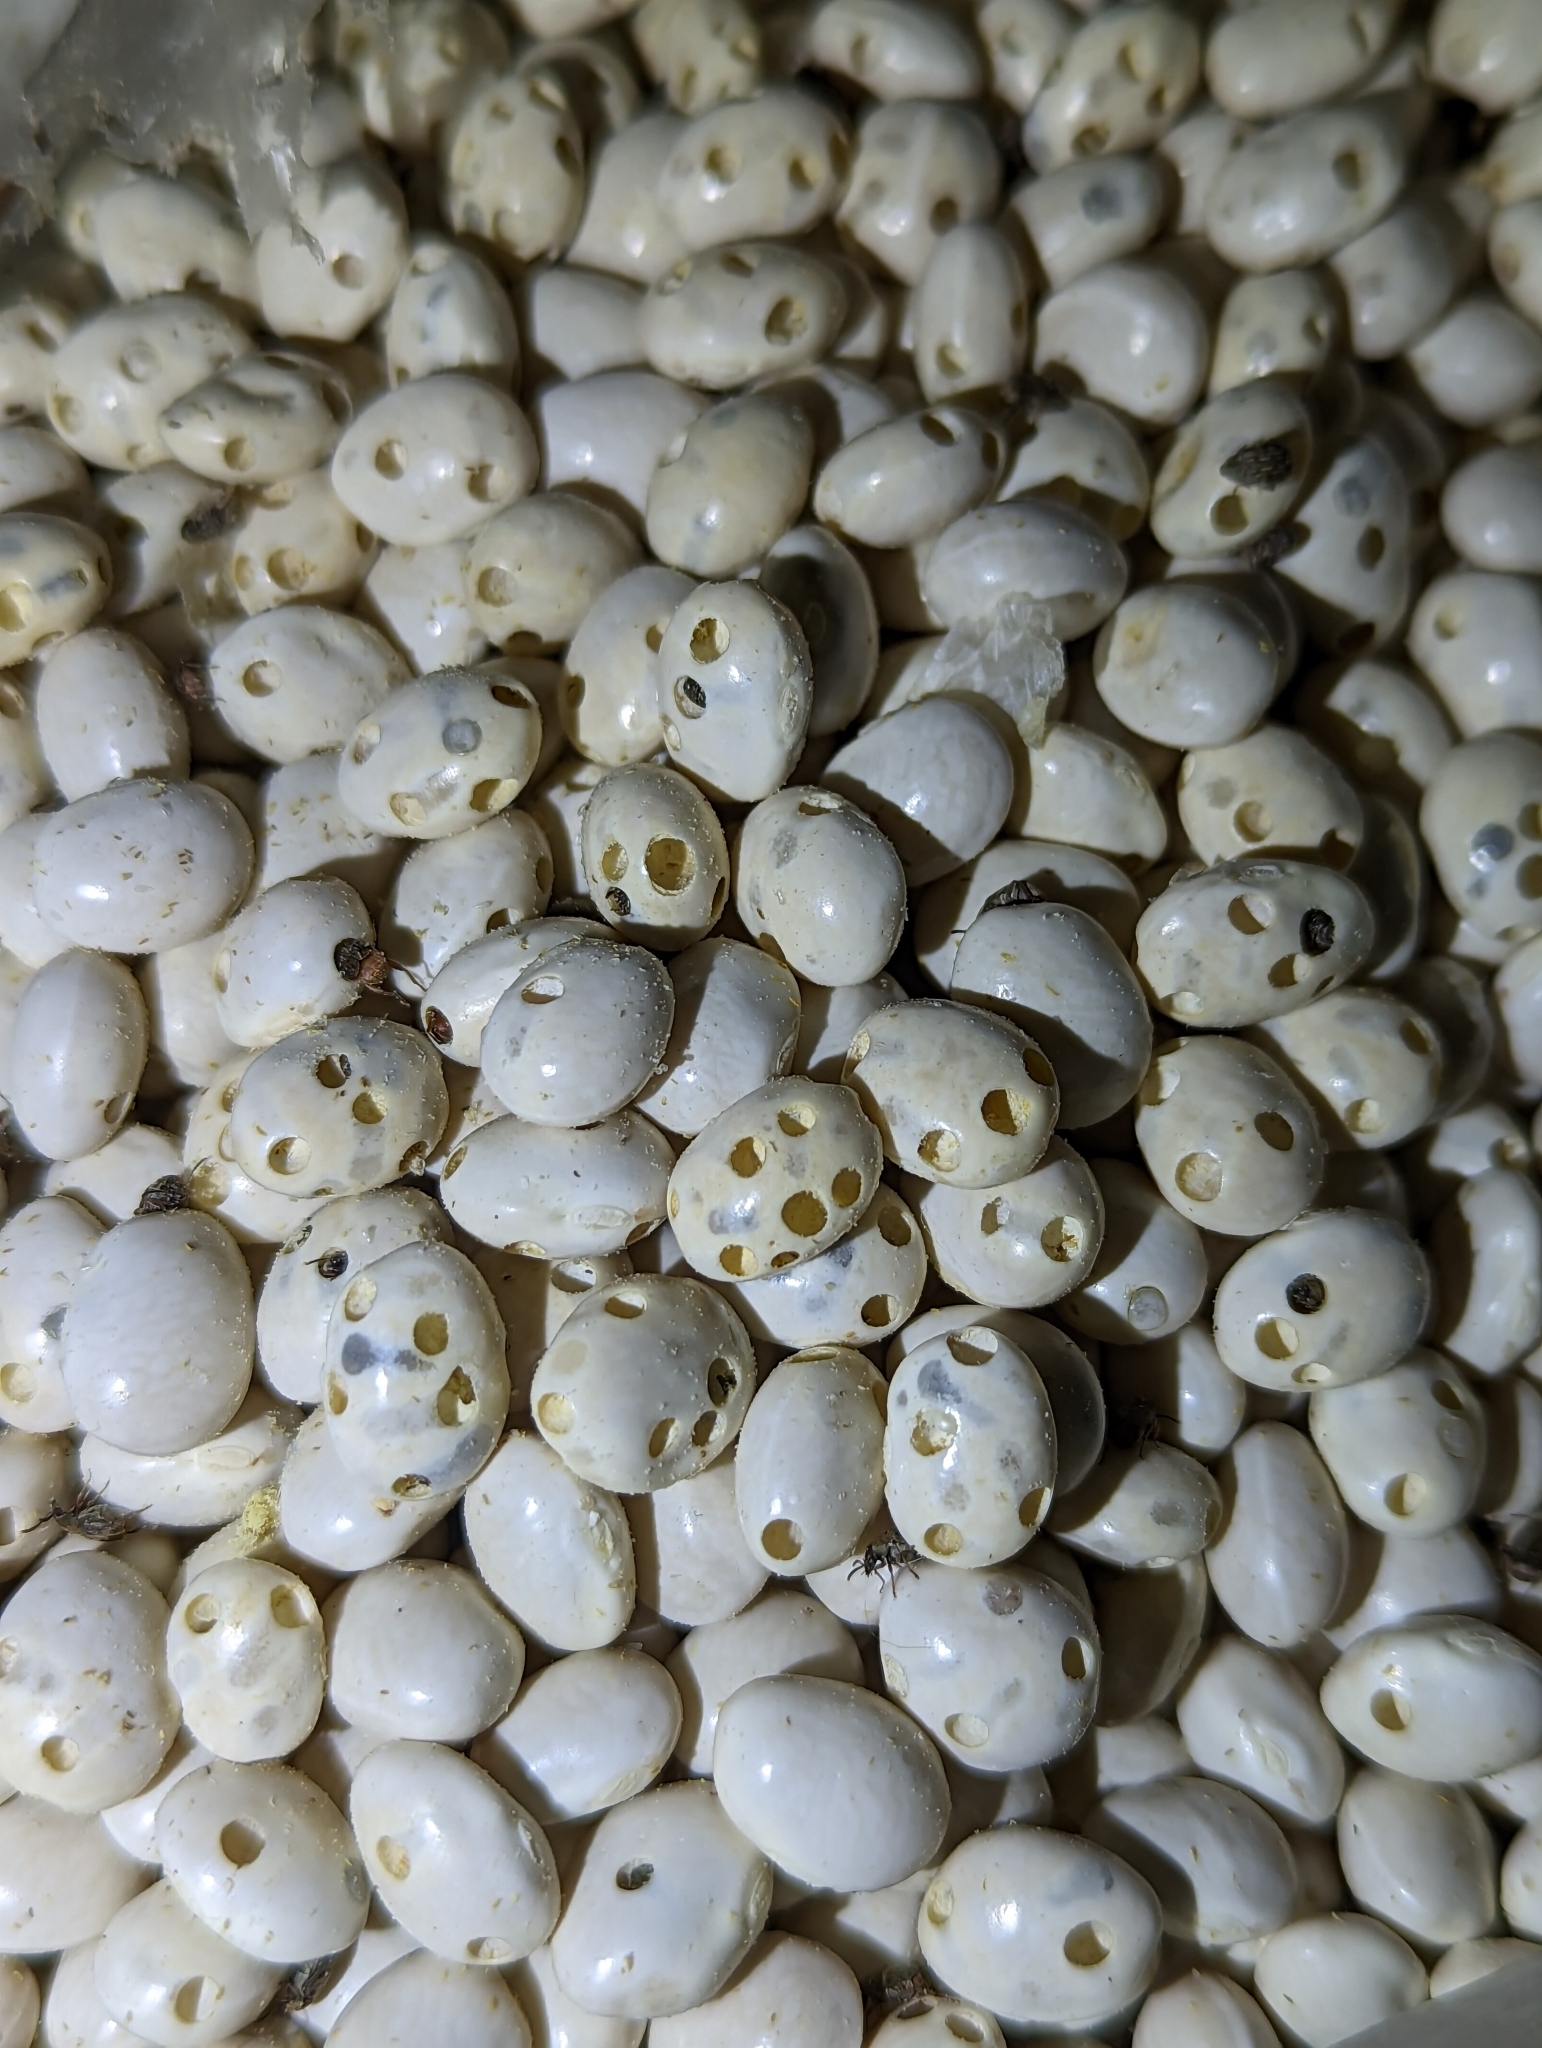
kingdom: Animalia
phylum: Arthropoda
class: Insecta
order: Coleoptera
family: Chrysomelidae
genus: Acanthoscelides
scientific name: Acanthoscelides obtectus
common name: Bean weevil
